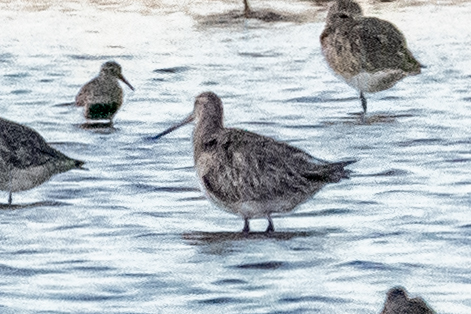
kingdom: Animalia
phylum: Chordata
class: Aves
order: Charadriiformes
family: Scolopacidae
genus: Limosa
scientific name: Limosa lapponica
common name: Bar-tailed godwit
